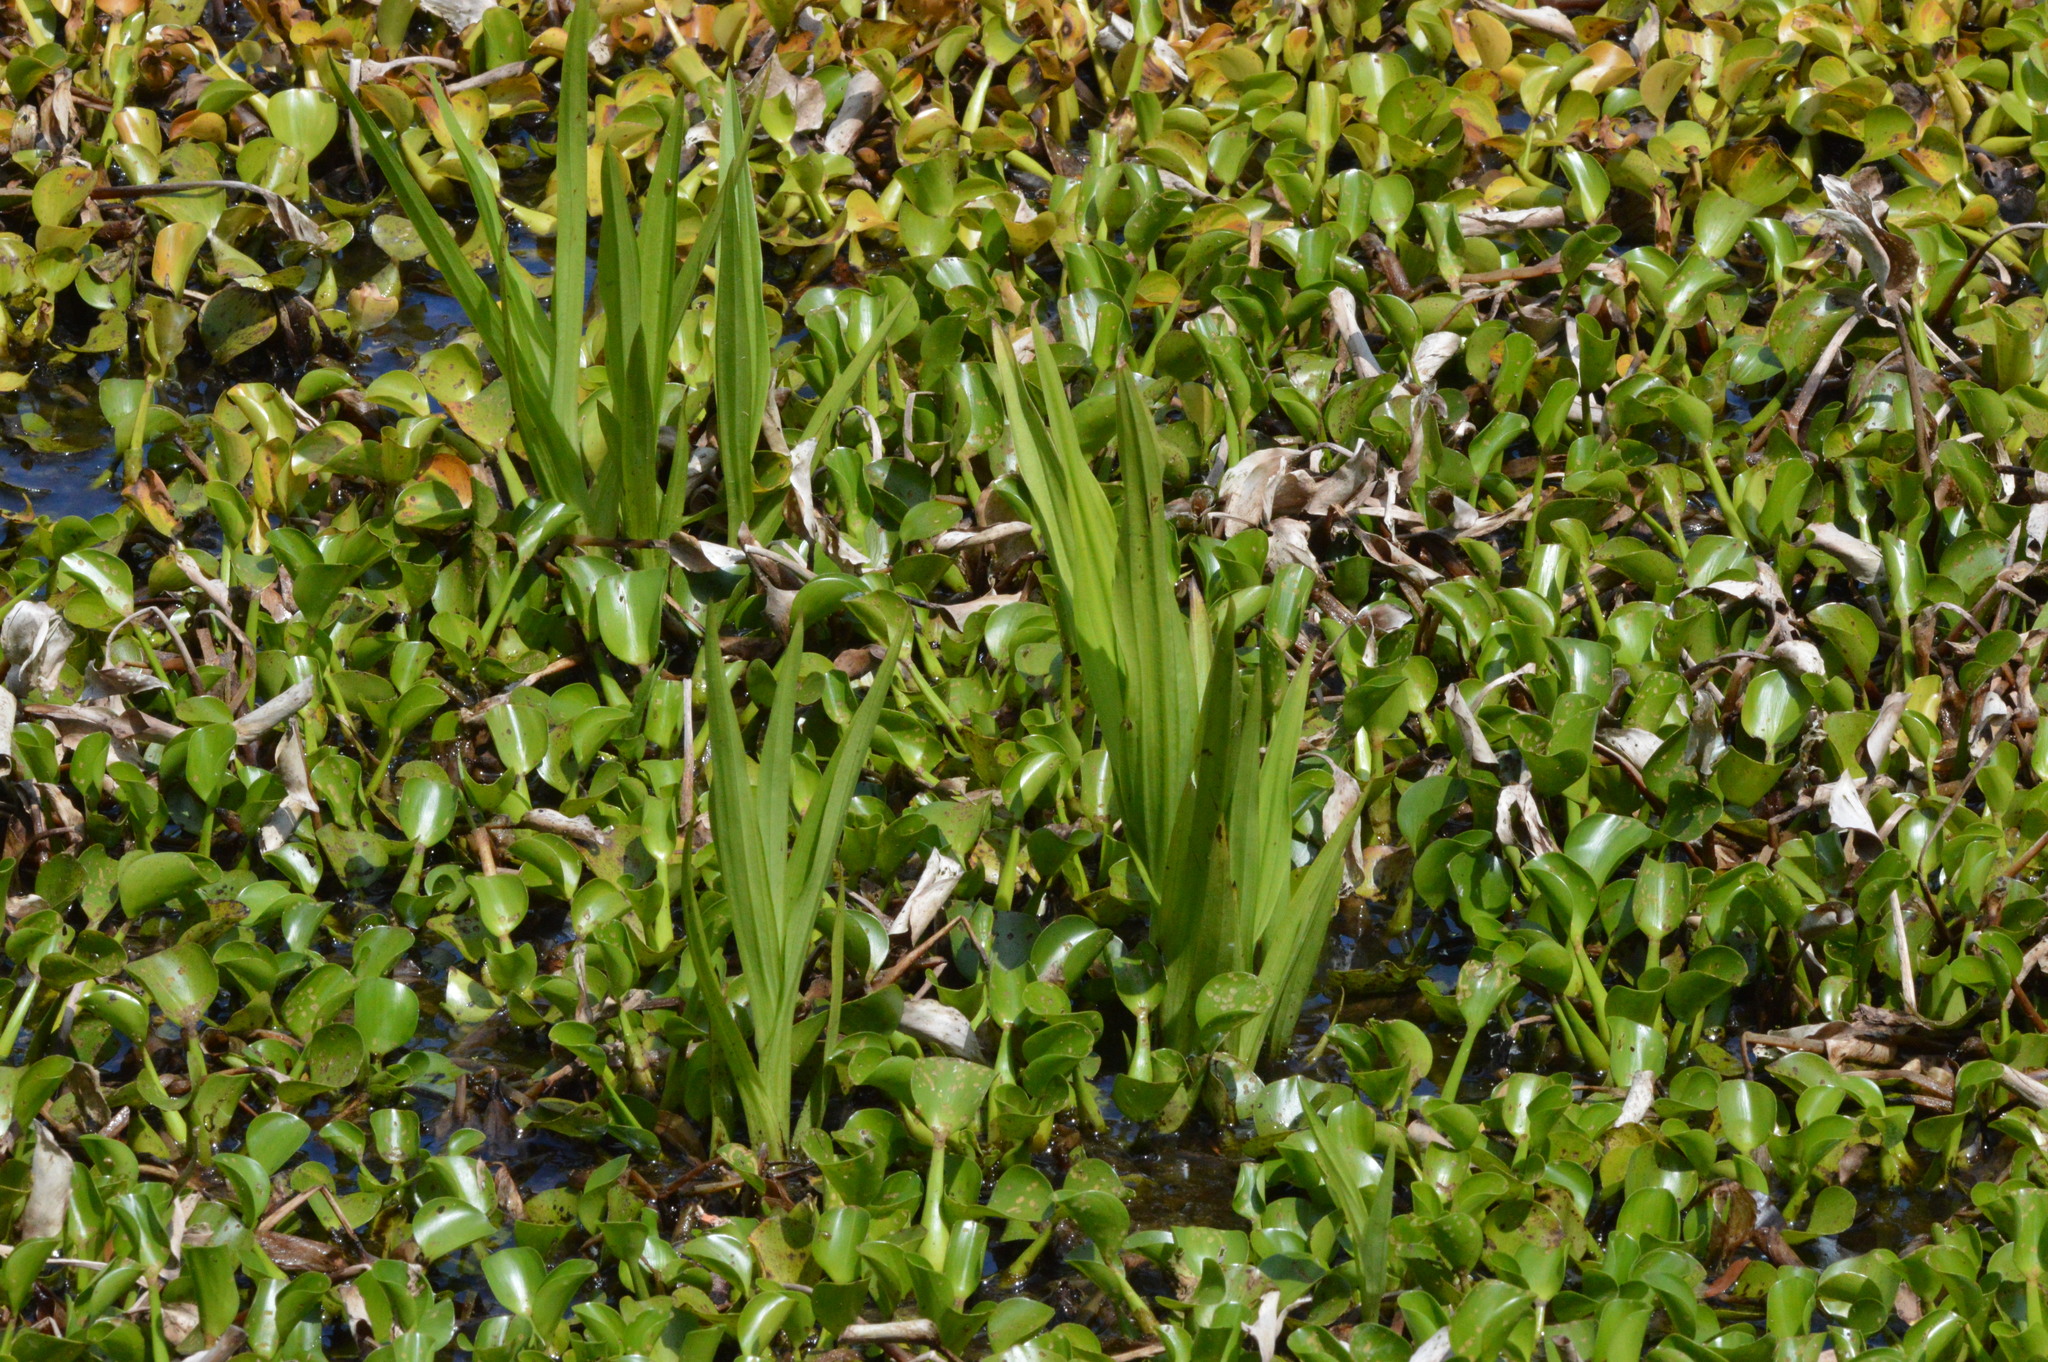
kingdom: Plantae
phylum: Tracheophyta
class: Liliopsida
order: Asparagales
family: Orchidaceae
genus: Habenaria
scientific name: Habenaria repens
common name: Water orchid
